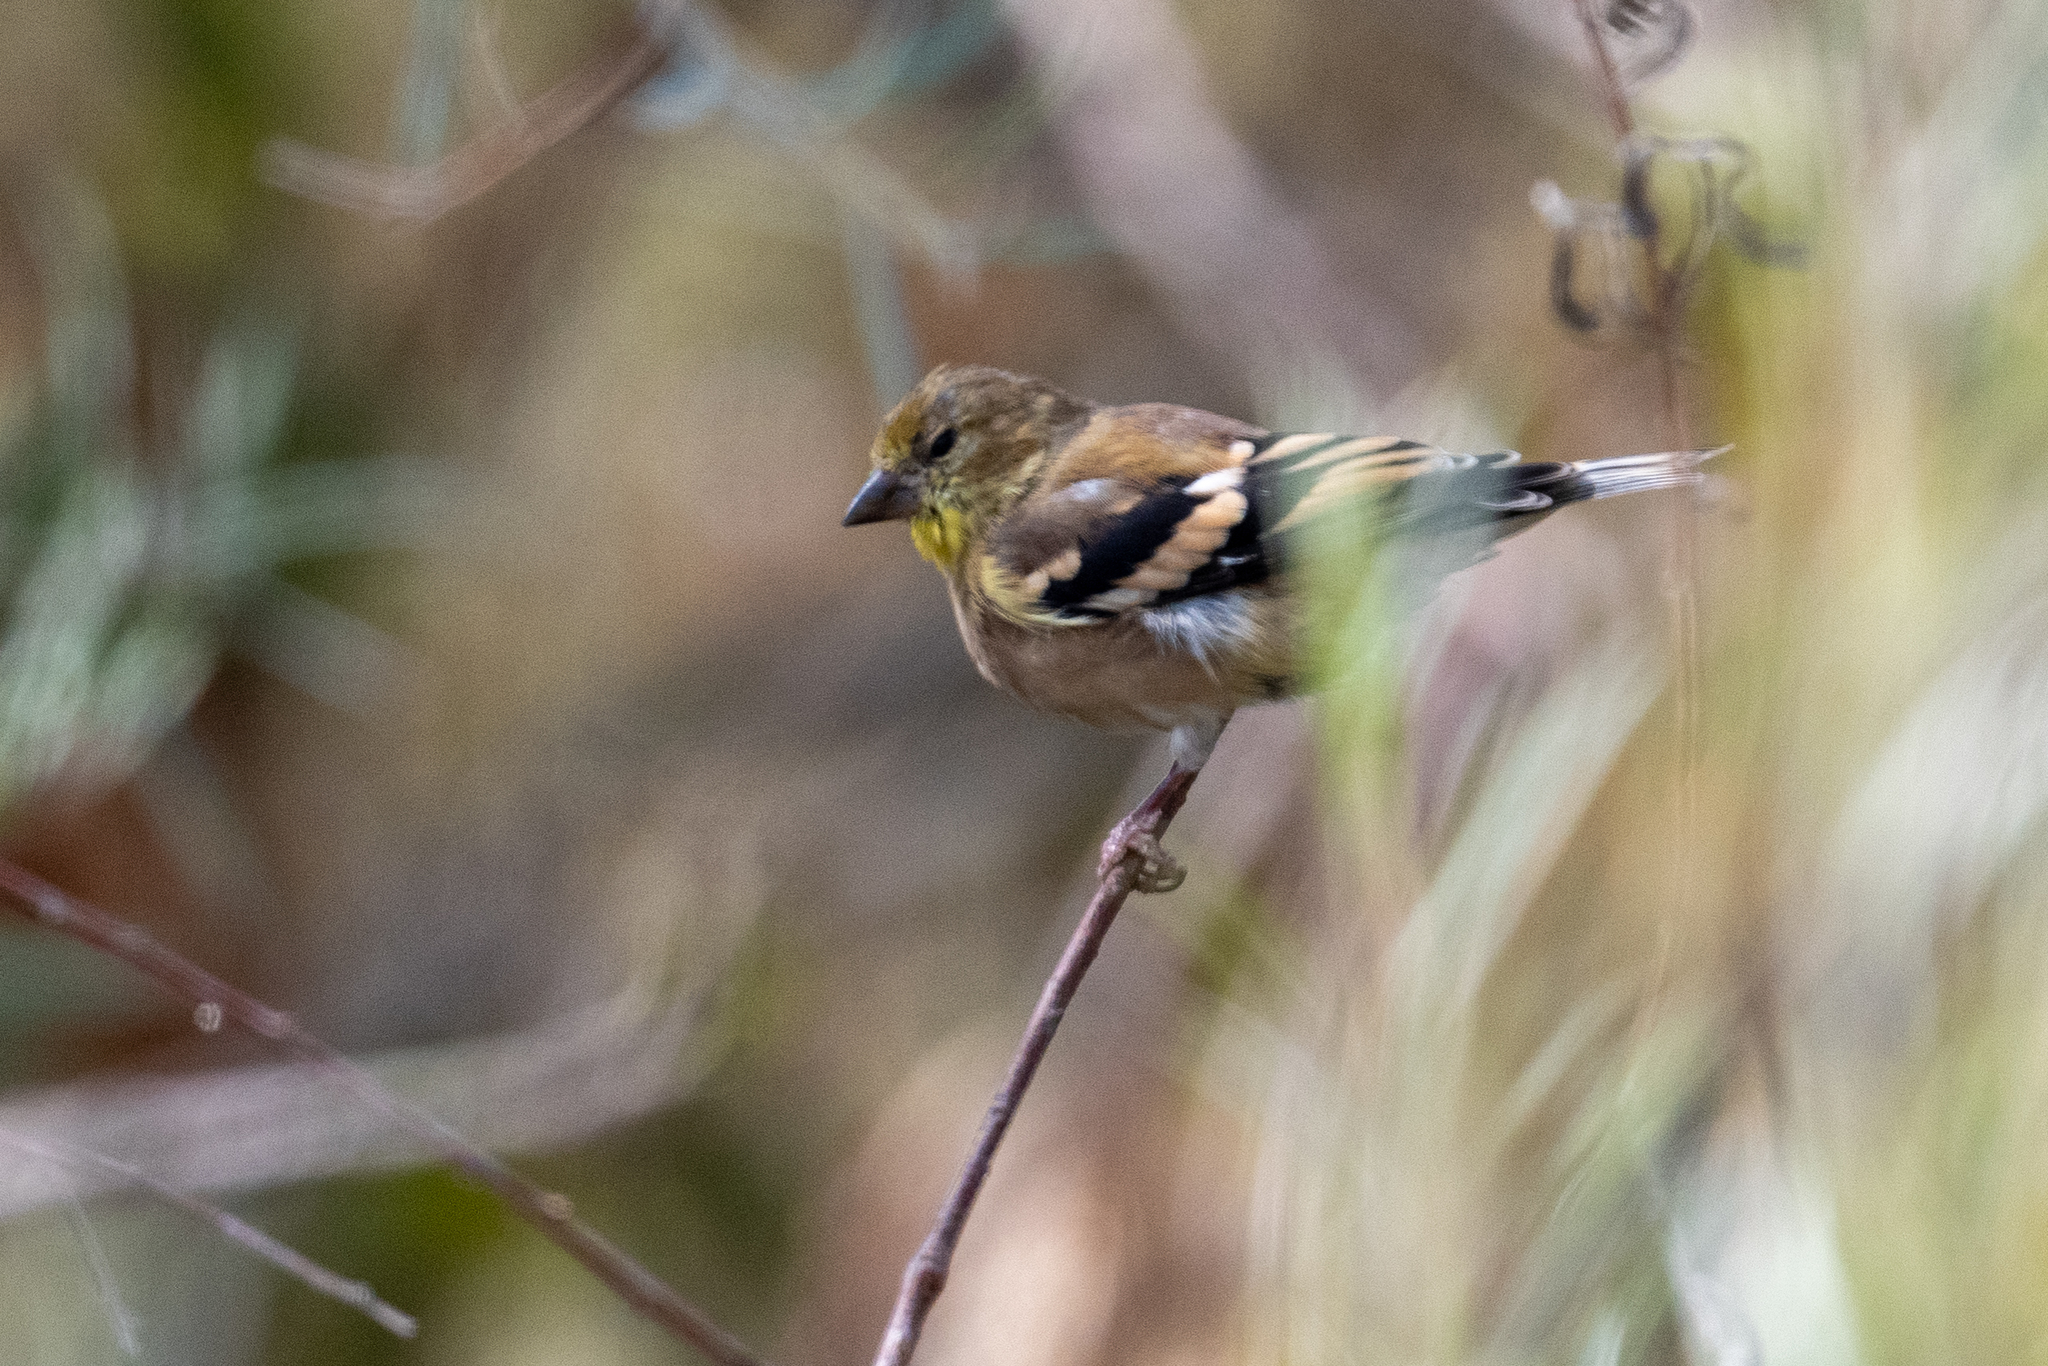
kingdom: Animalia
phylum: Chordata
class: Aves
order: Passeriformes
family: Fringillidae
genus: Spinus
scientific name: Spinus tristis
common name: American goldfinch
